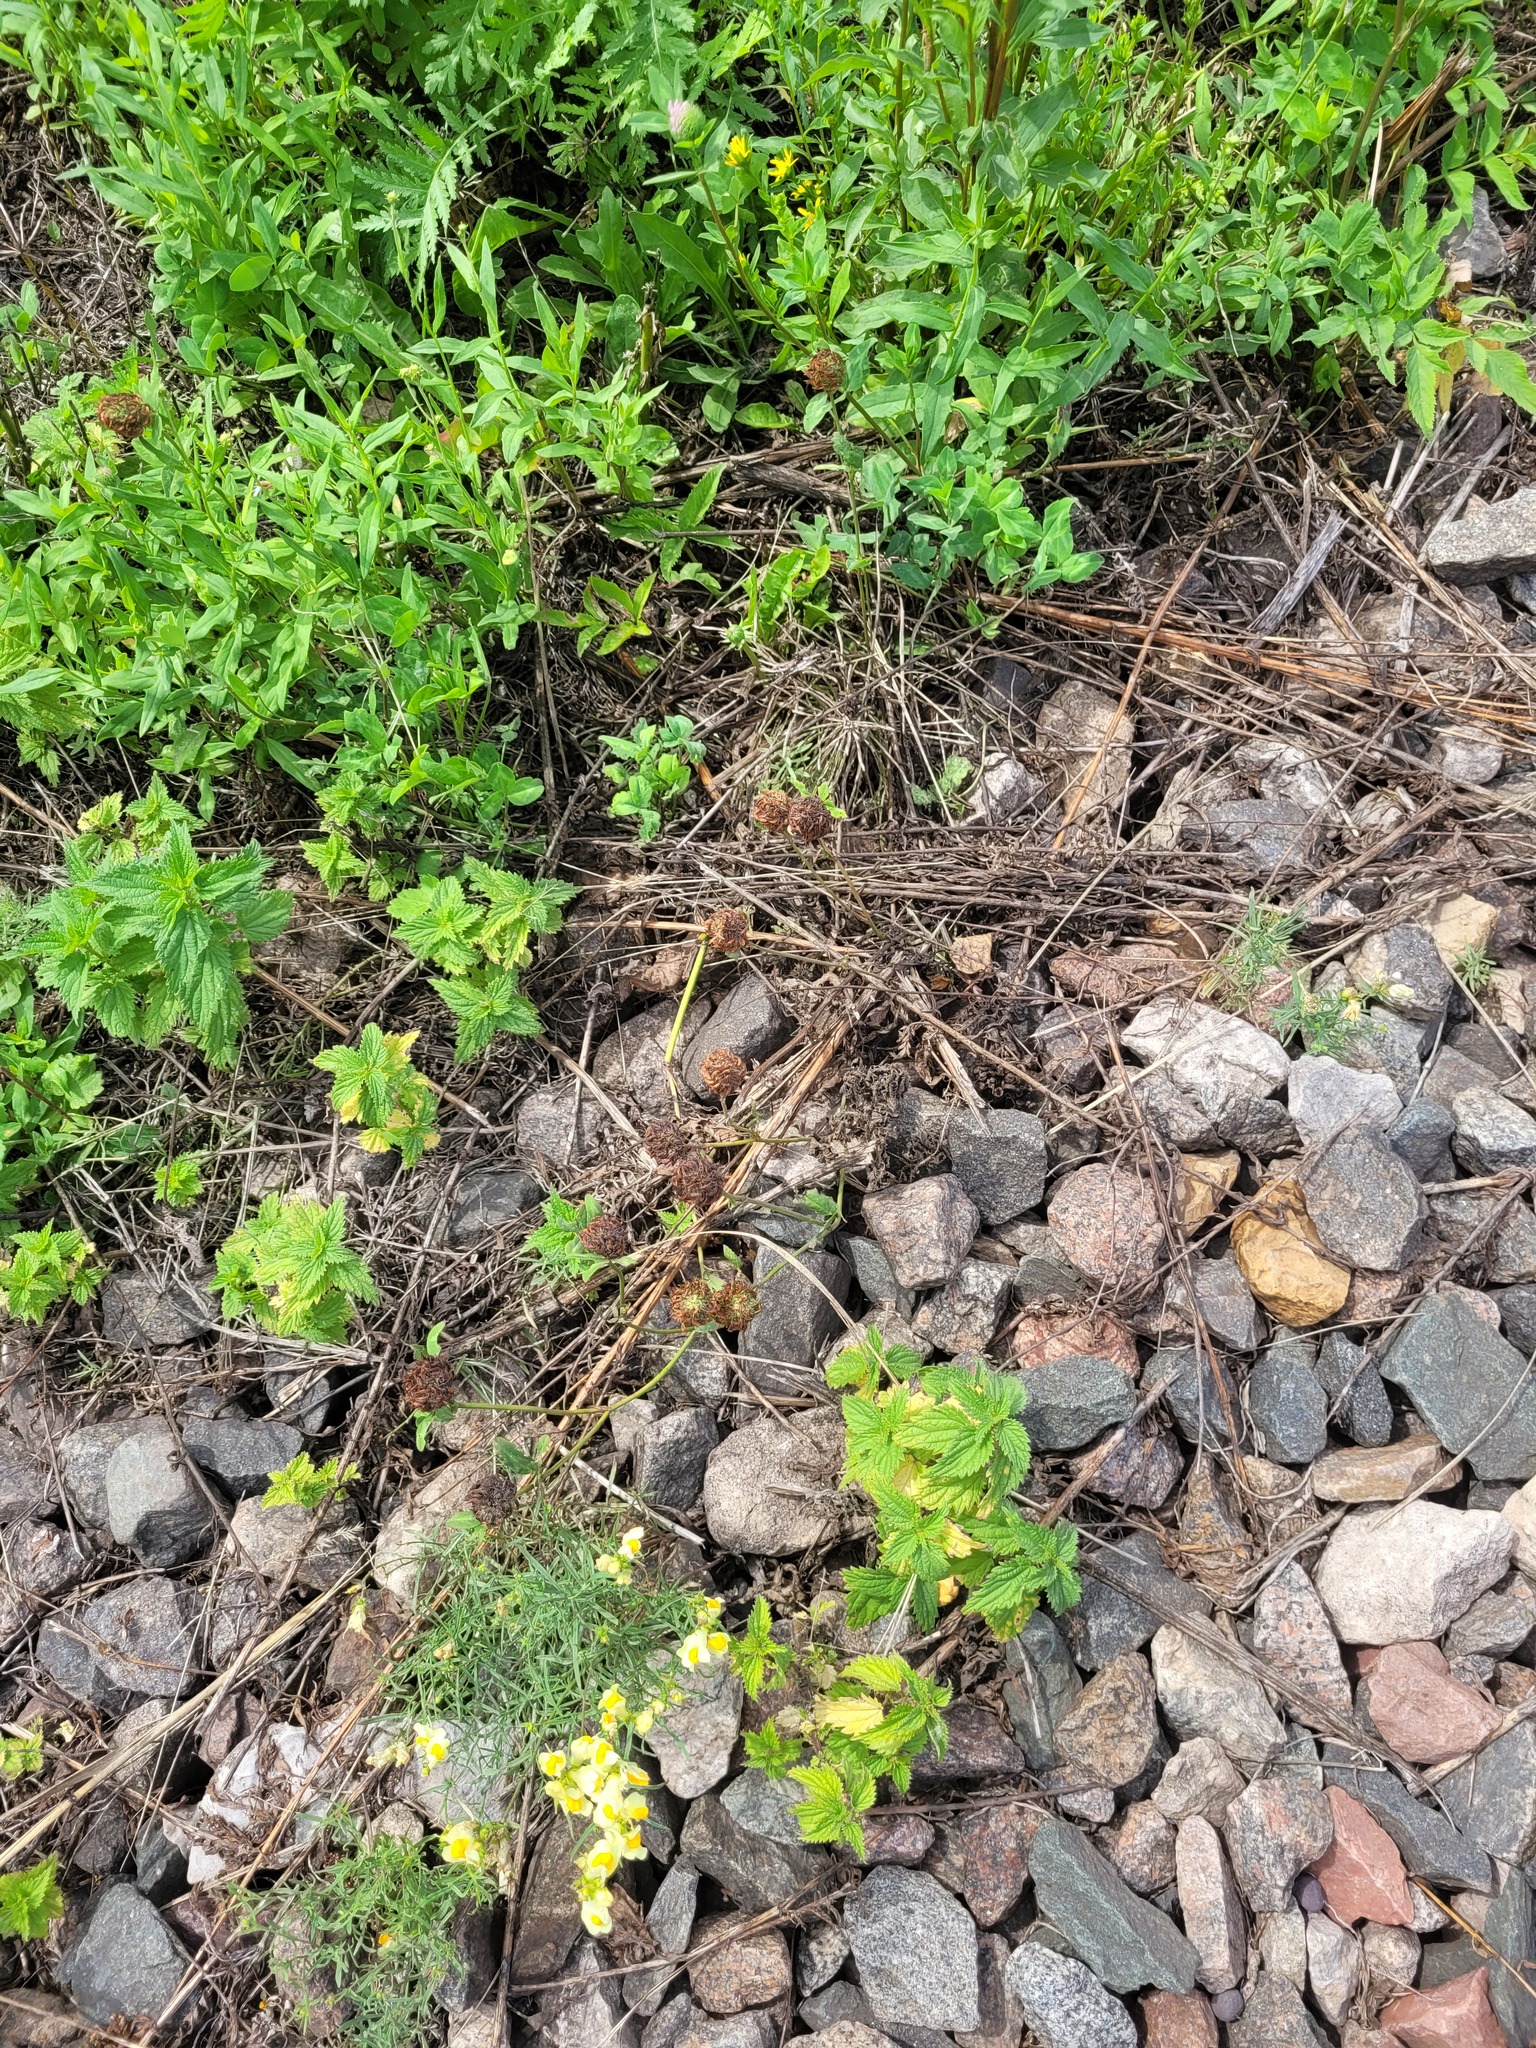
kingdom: Plantae
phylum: Tracheophyta
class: Magnoliopsida
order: Fabales
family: Fabaceae
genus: Trifolium
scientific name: Trifolium pratense
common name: Red clover
